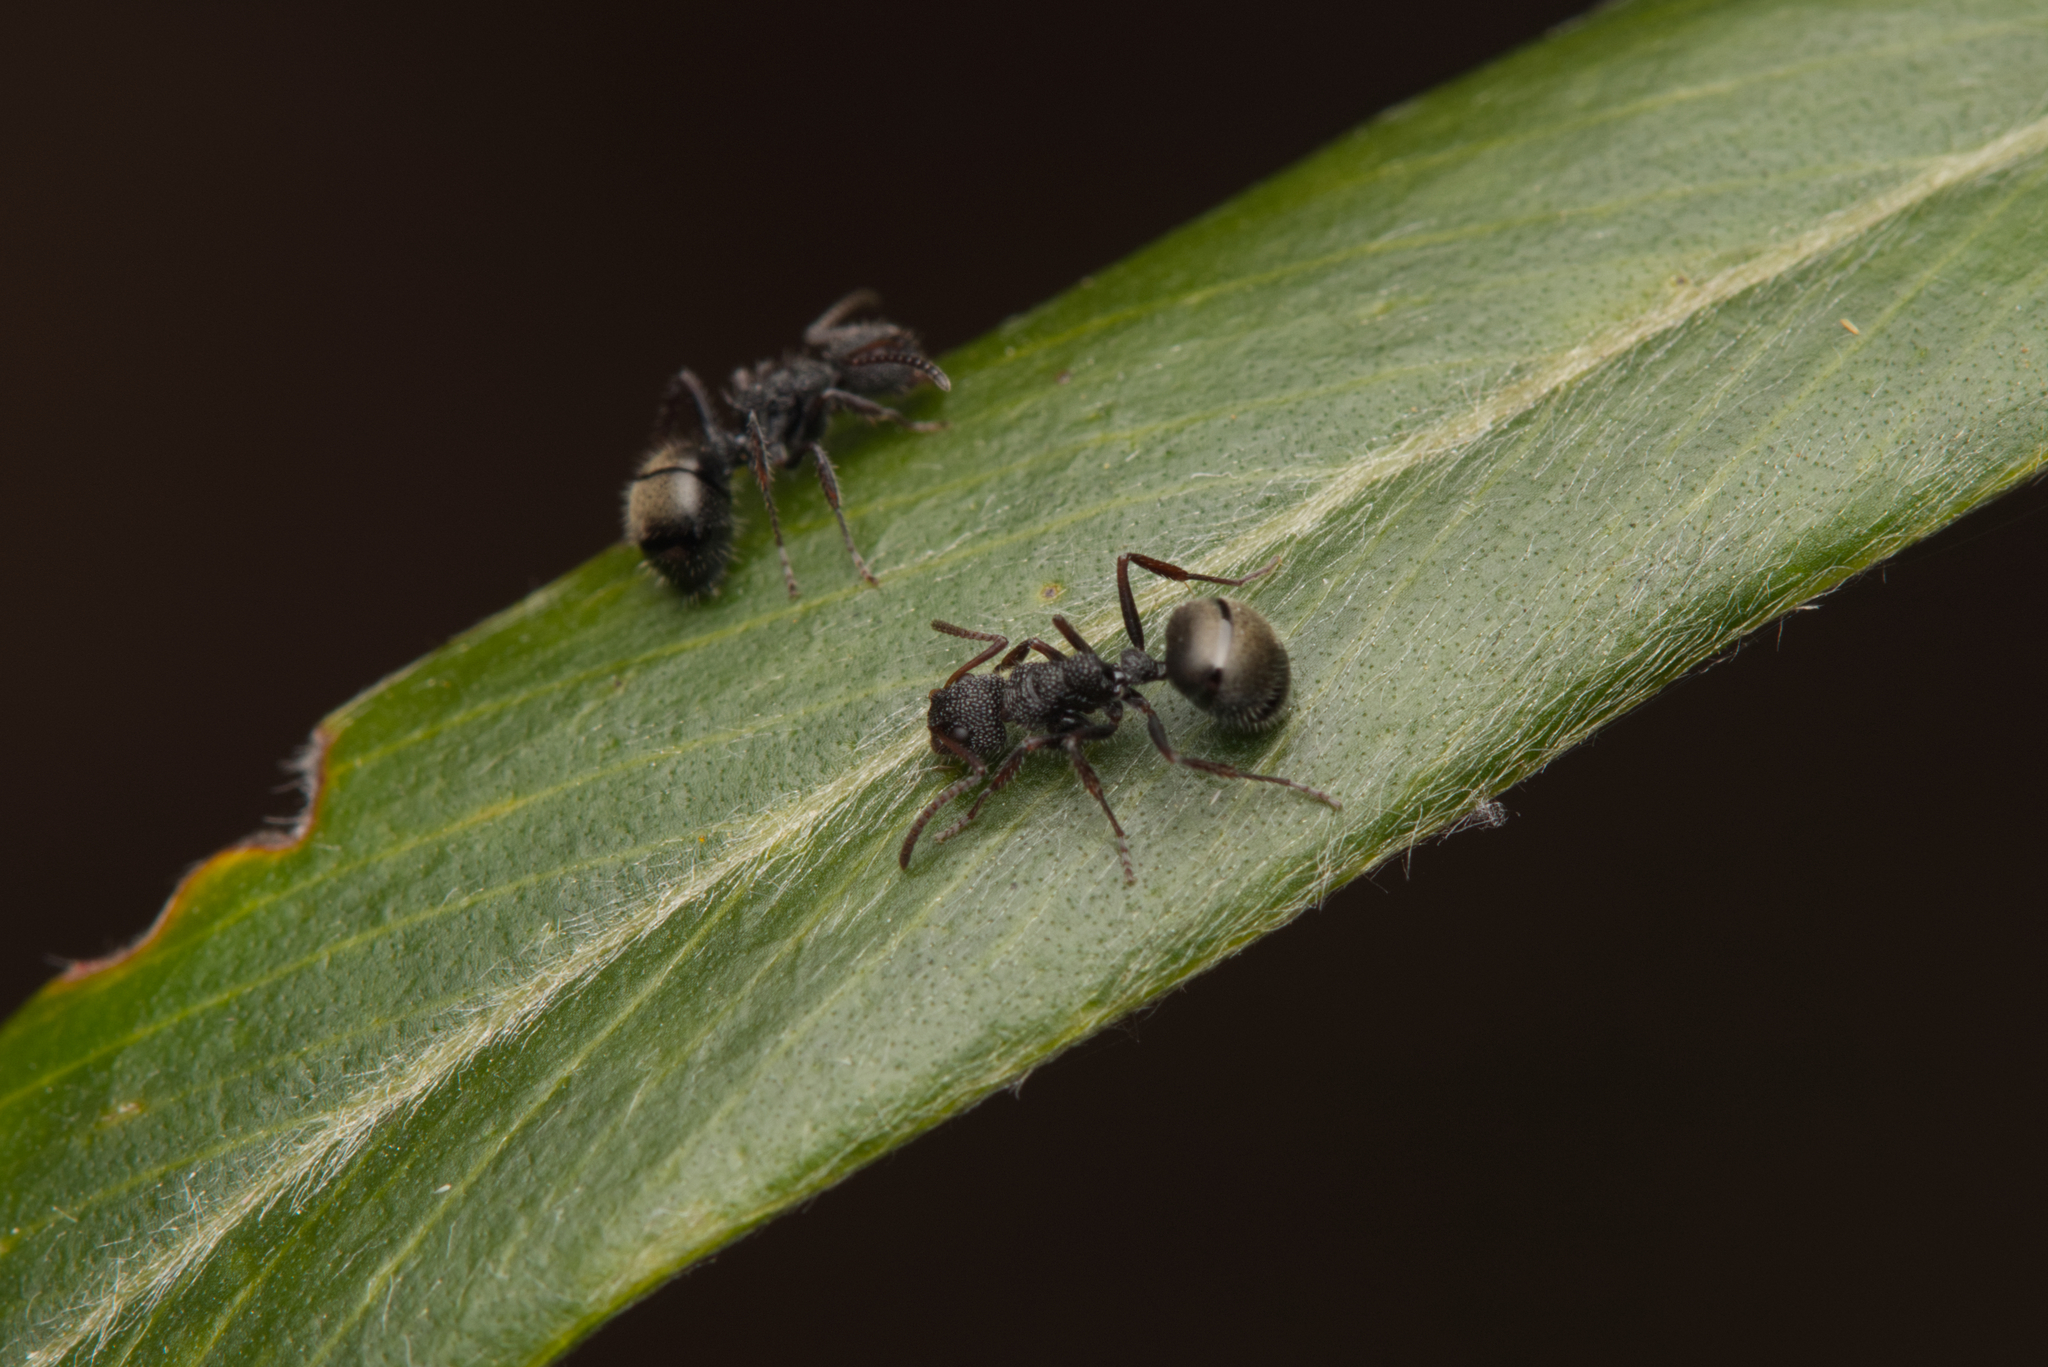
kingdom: Animalia
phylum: Arthropoda
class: Insecta
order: Hymenoptera
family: Formicidae
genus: Dolichoderus
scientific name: Dolichoderus scrobiculatus
